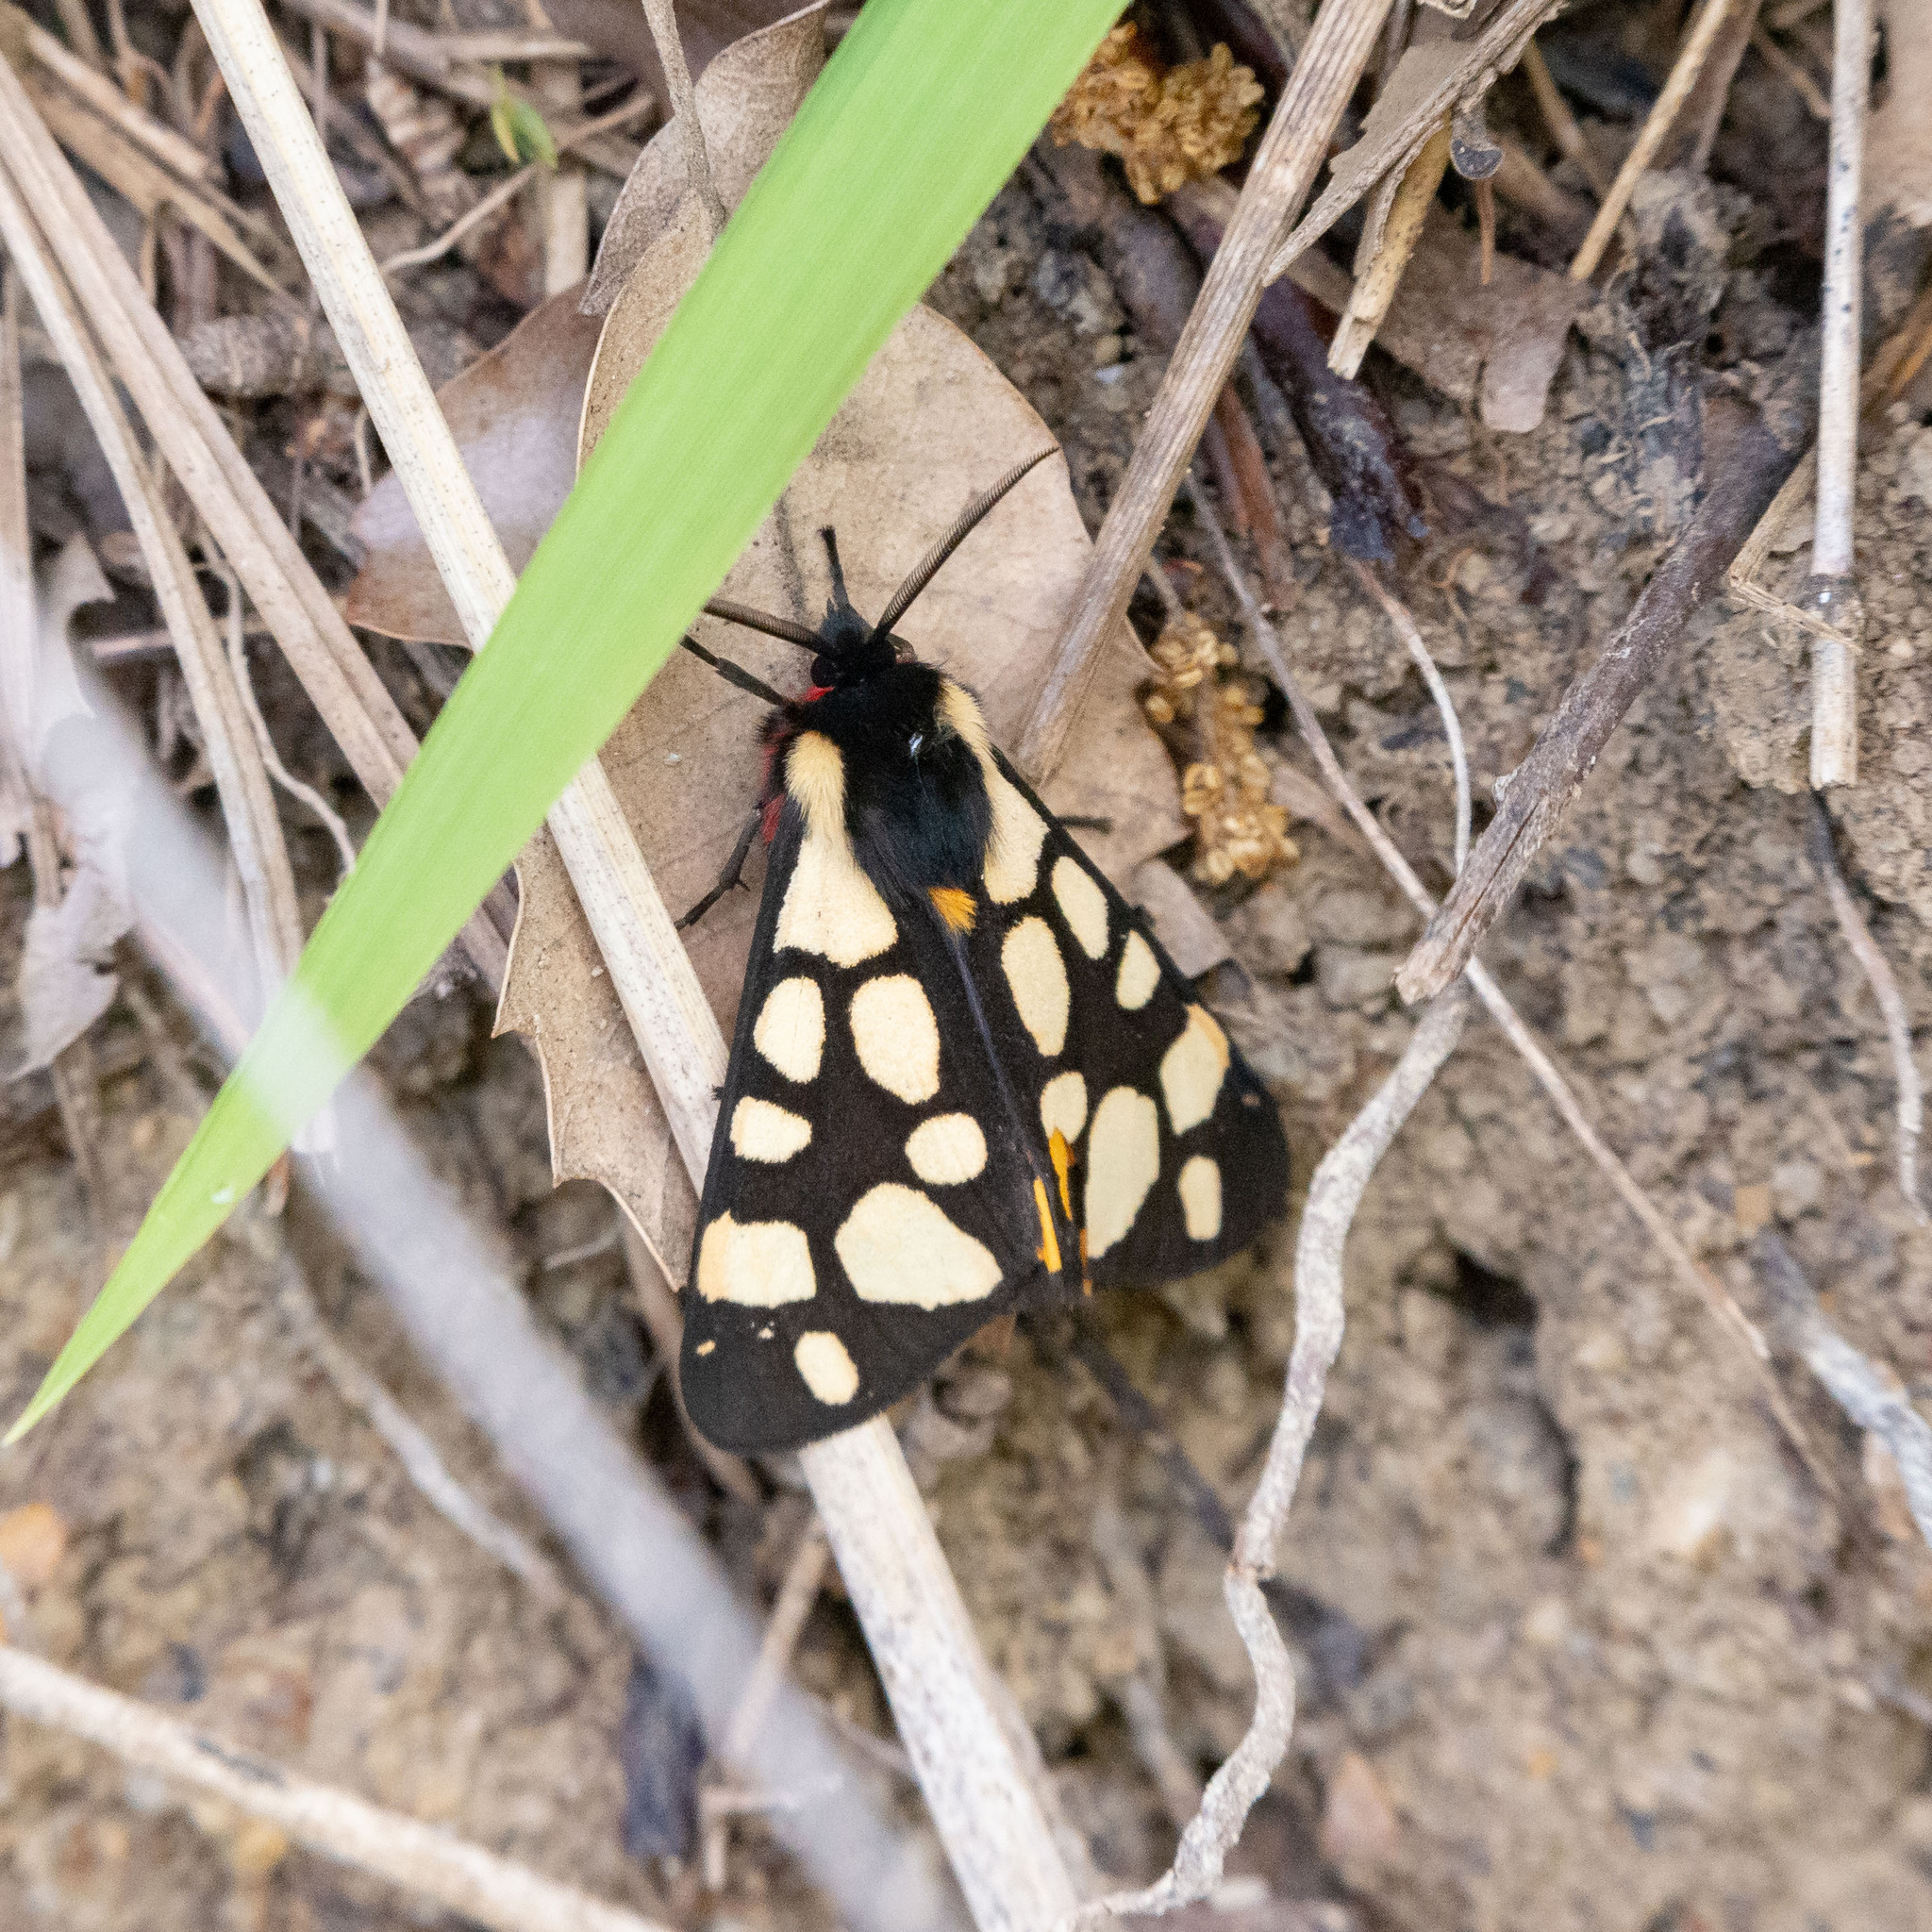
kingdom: Animalia
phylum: Arthropoda
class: Insecta
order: Lepidoptera
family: Erebidae
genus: Epicallia
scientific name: Epicallia villica
